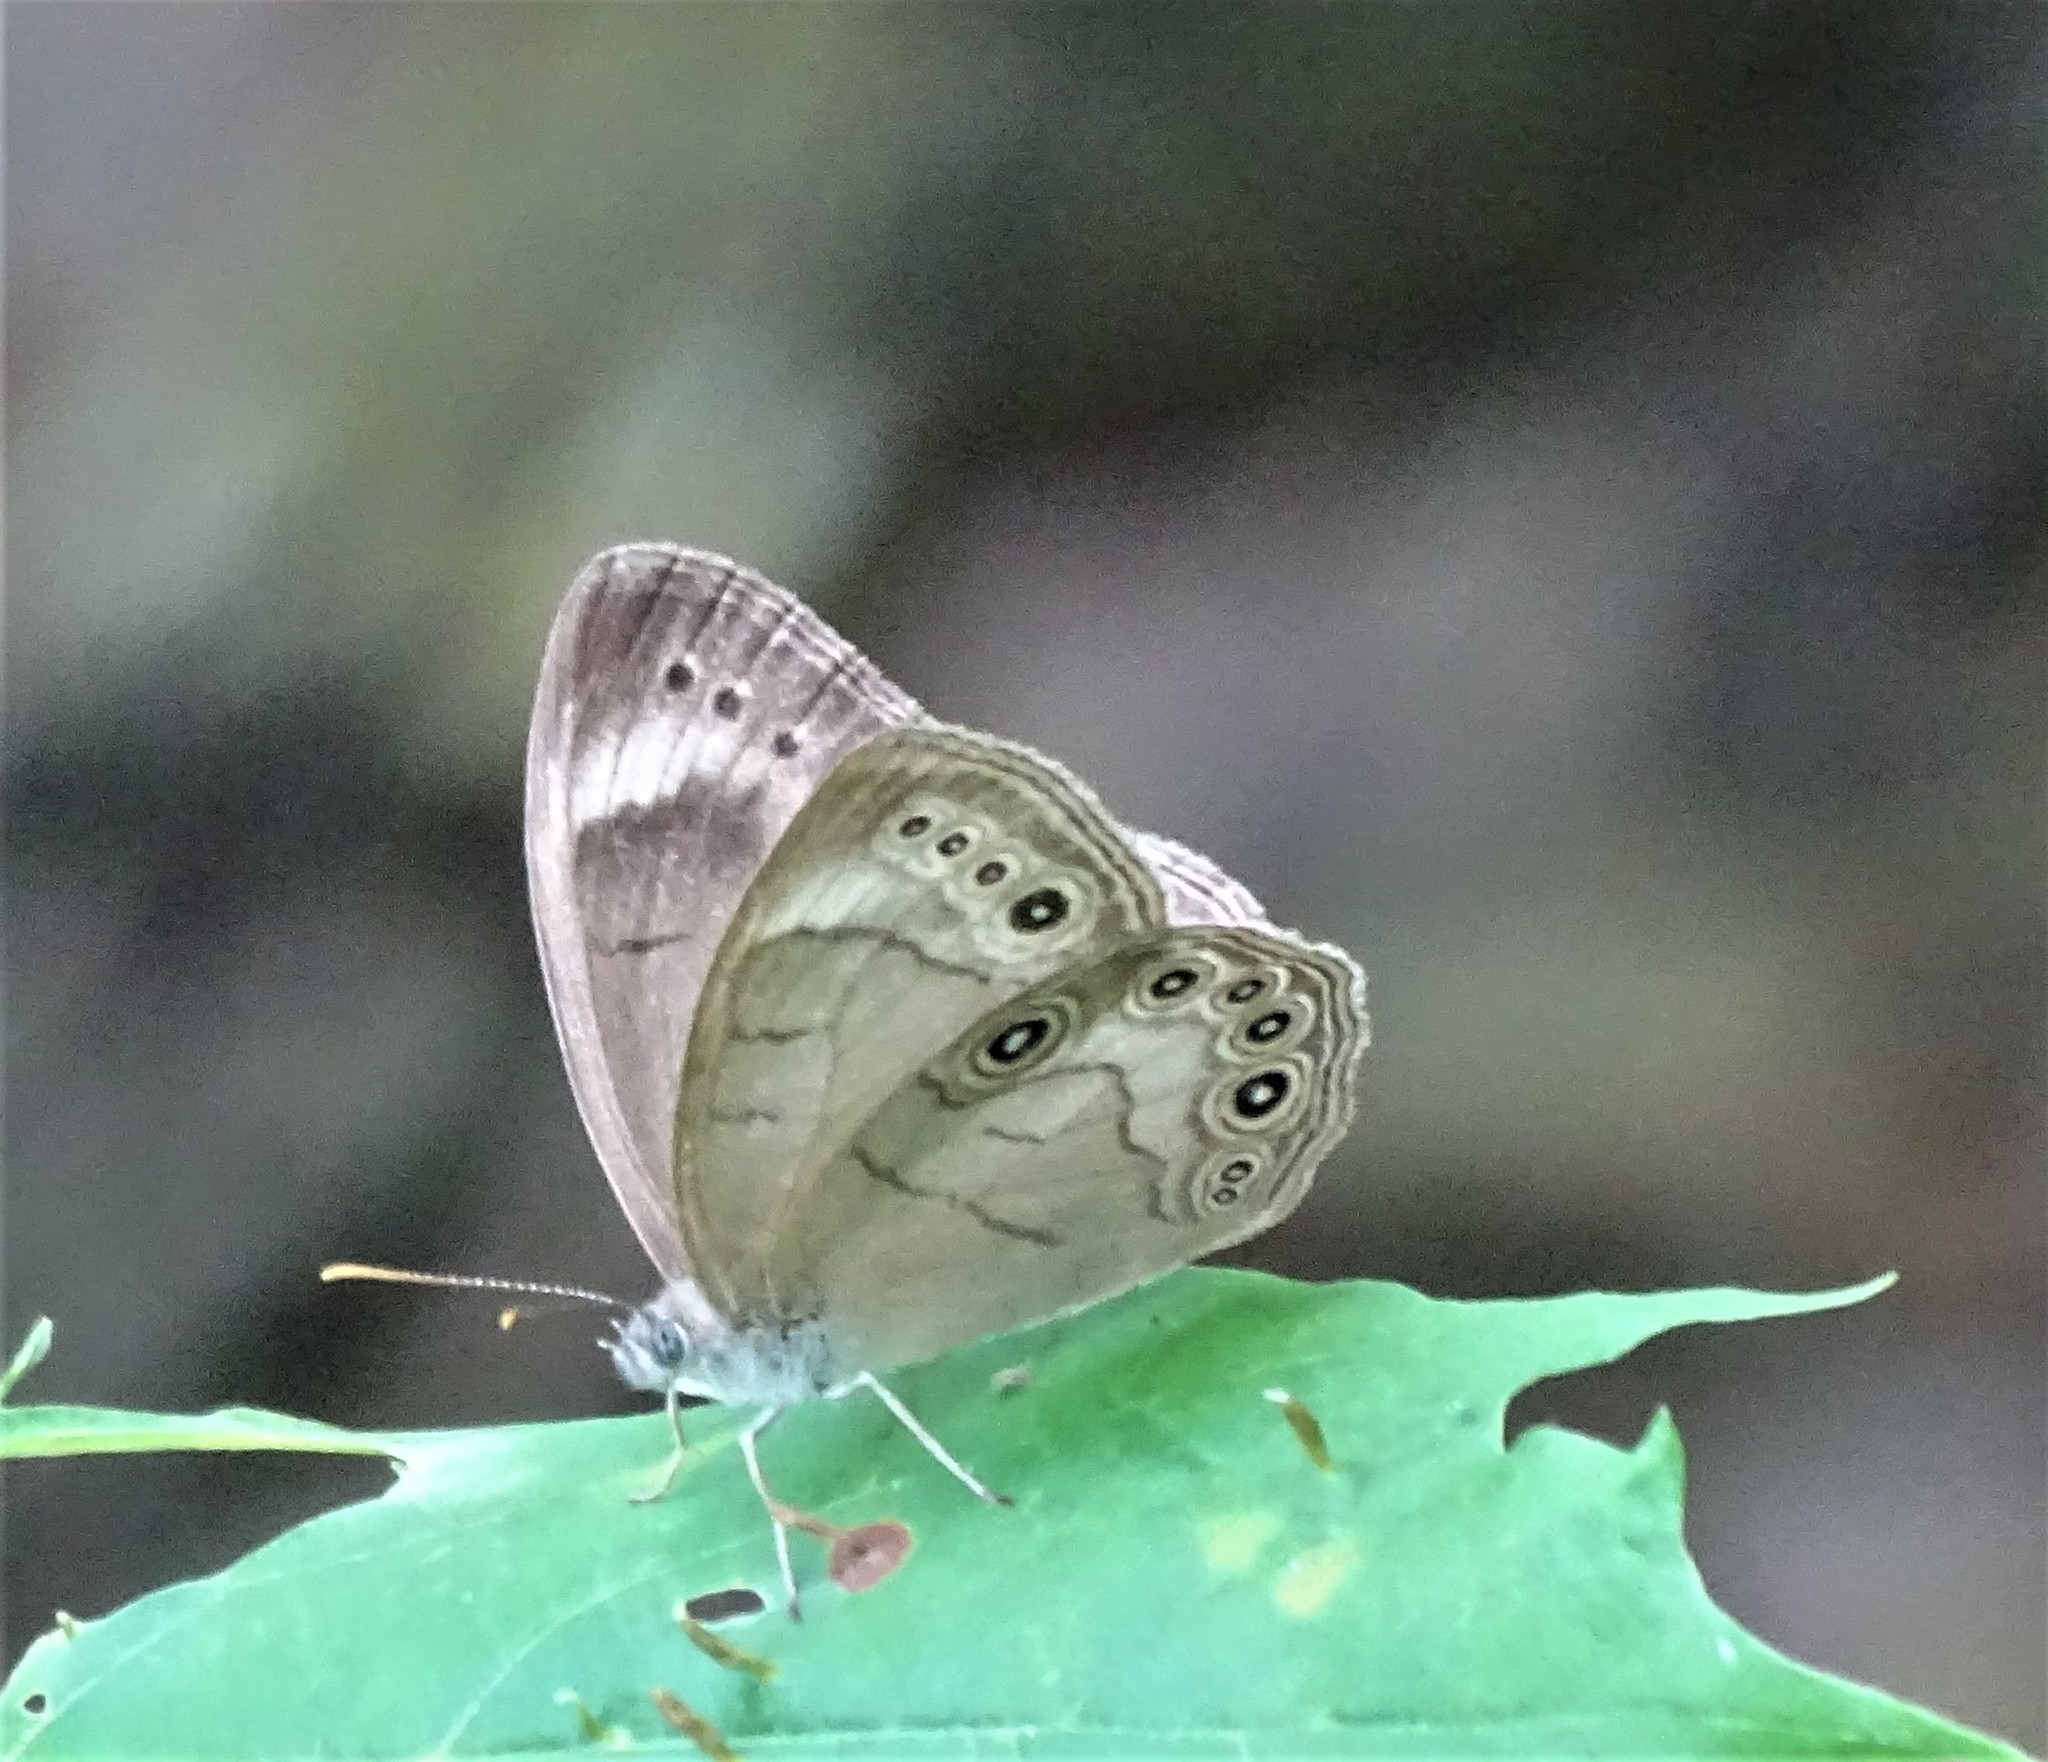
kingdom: Animalia
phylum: Arthropoda
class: Insecta
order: Lepidoptera
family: Nymphalidae
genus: Lethe
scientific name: Lethe eurydice
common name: Eyed brown
